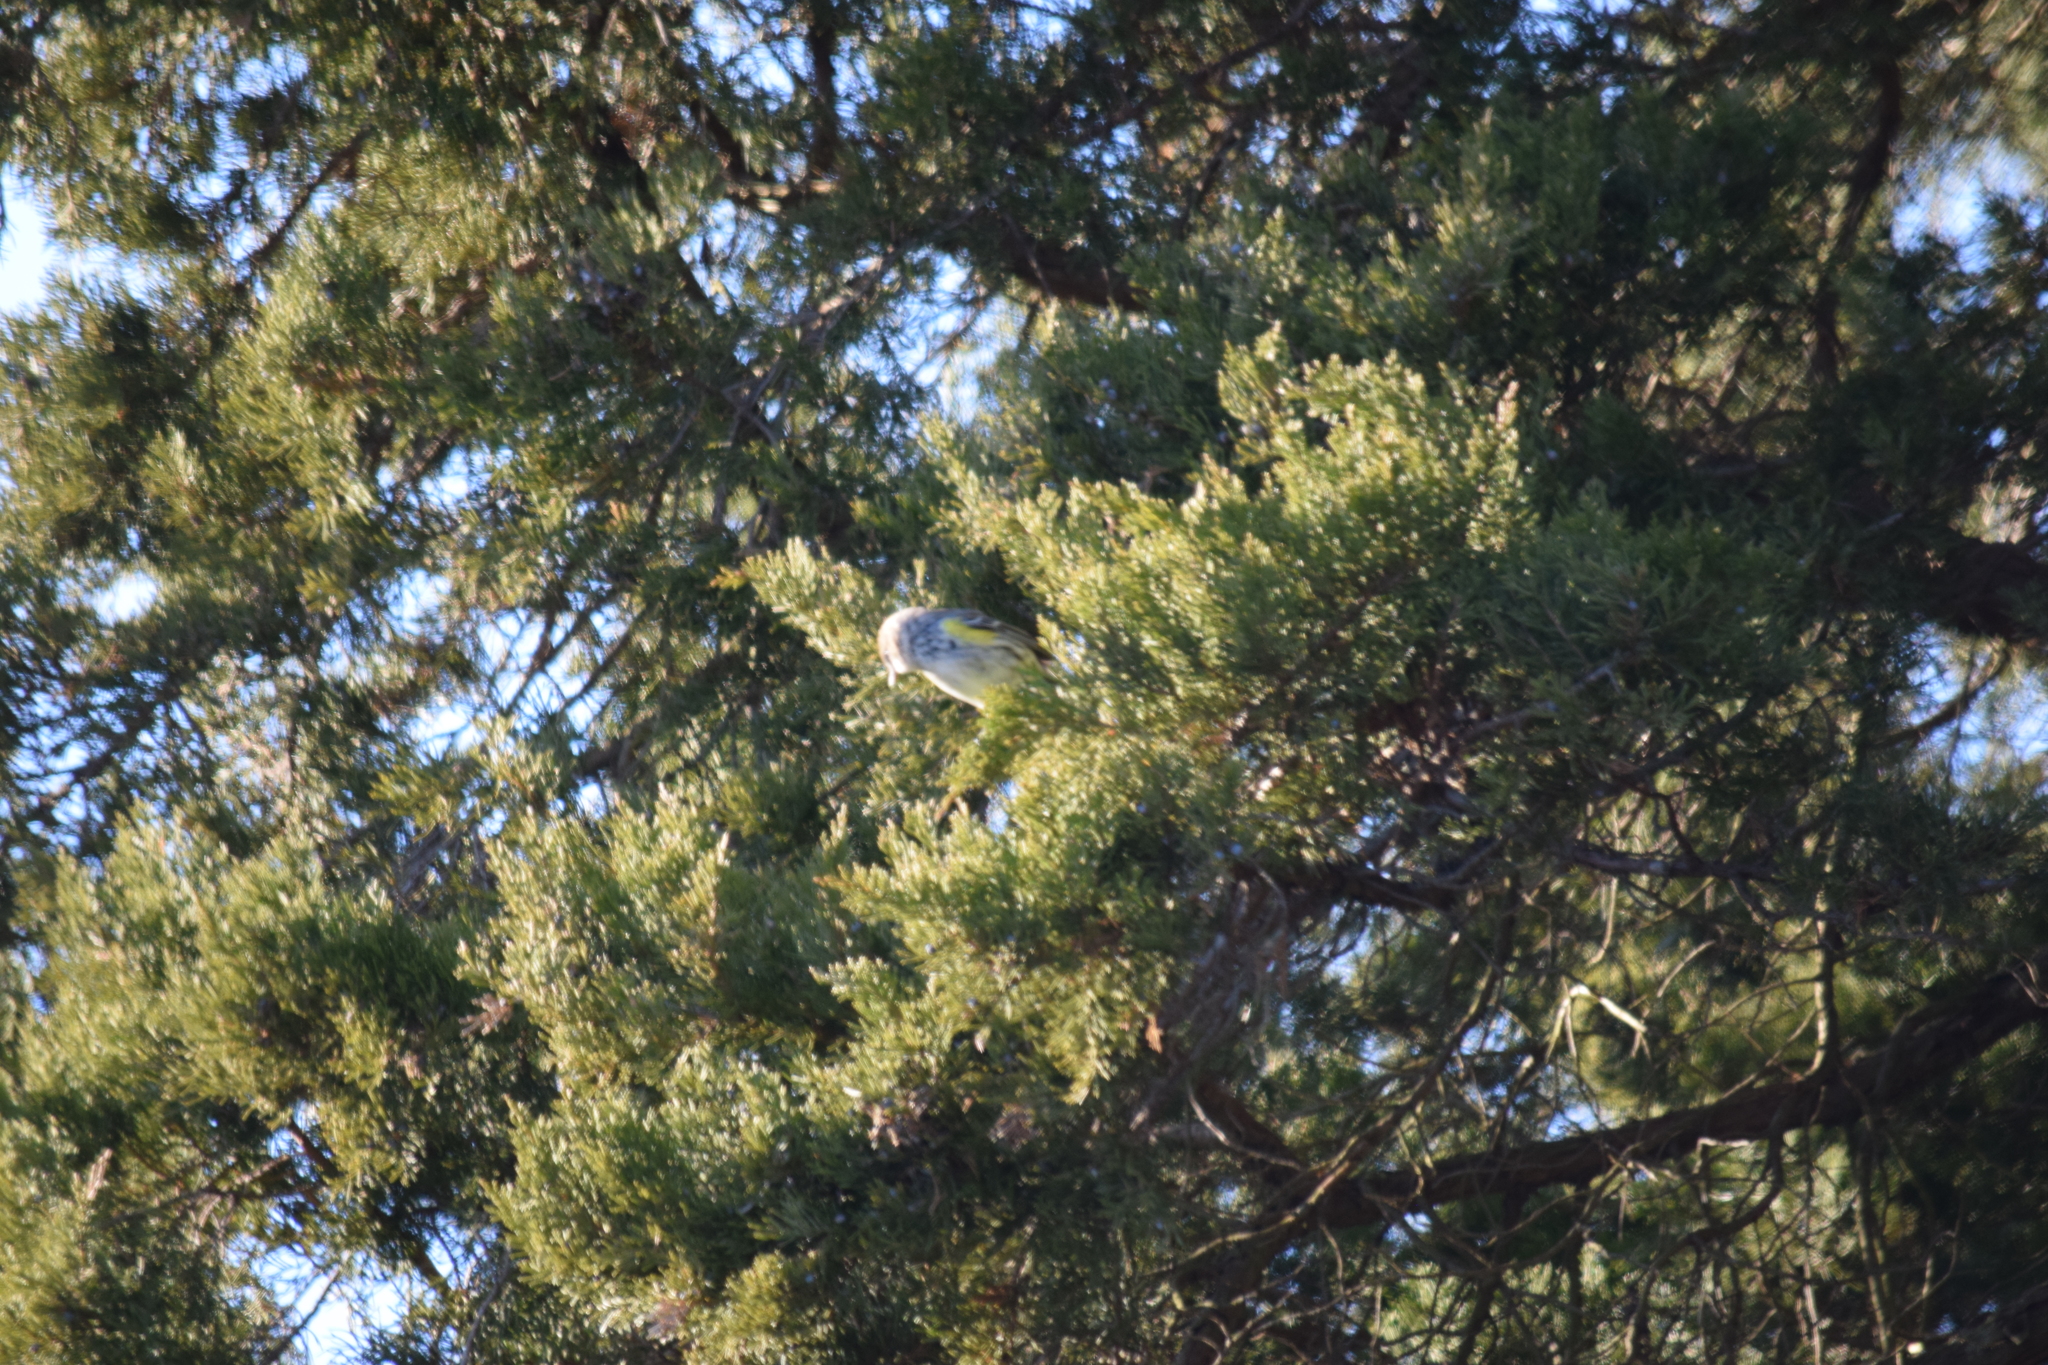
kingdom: Animalia
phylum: Chordata
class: Aves
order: Passeriformes
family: Parulidae
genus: Setophaga
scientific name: Setophaga coronata
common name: Myrtle warbler
